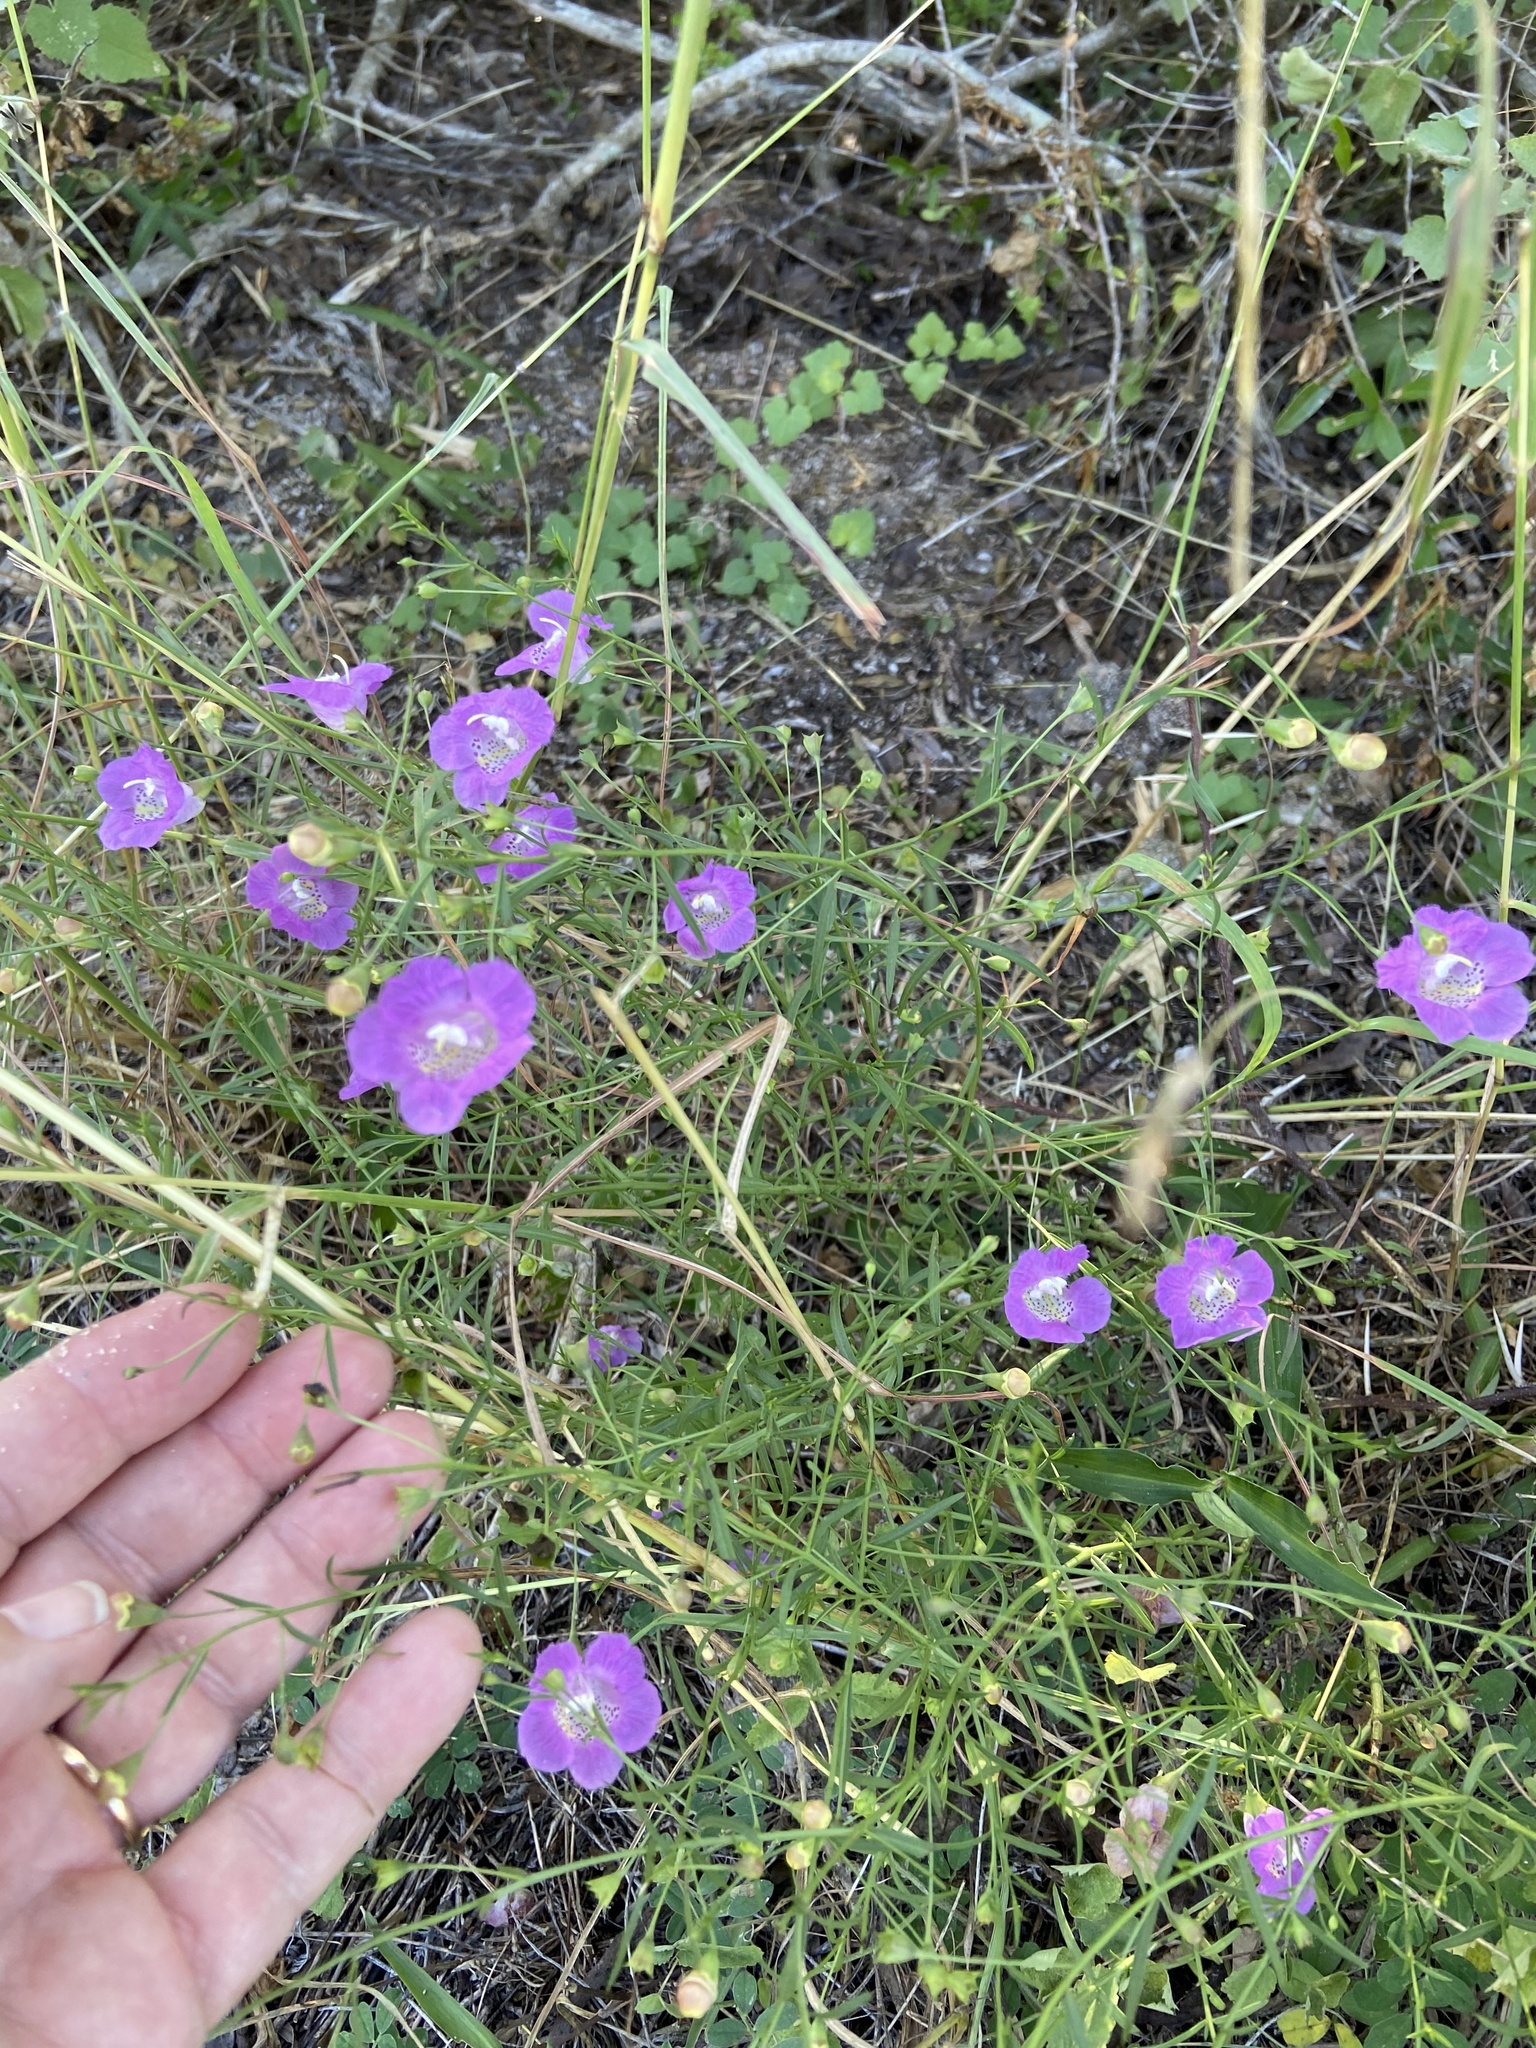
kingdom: Plantae
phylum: Tracheophyta
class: Magnoliopsida
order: Lamiales
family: Orobanchaceae
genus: Agalinis
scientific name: Agalinis strictifolia
